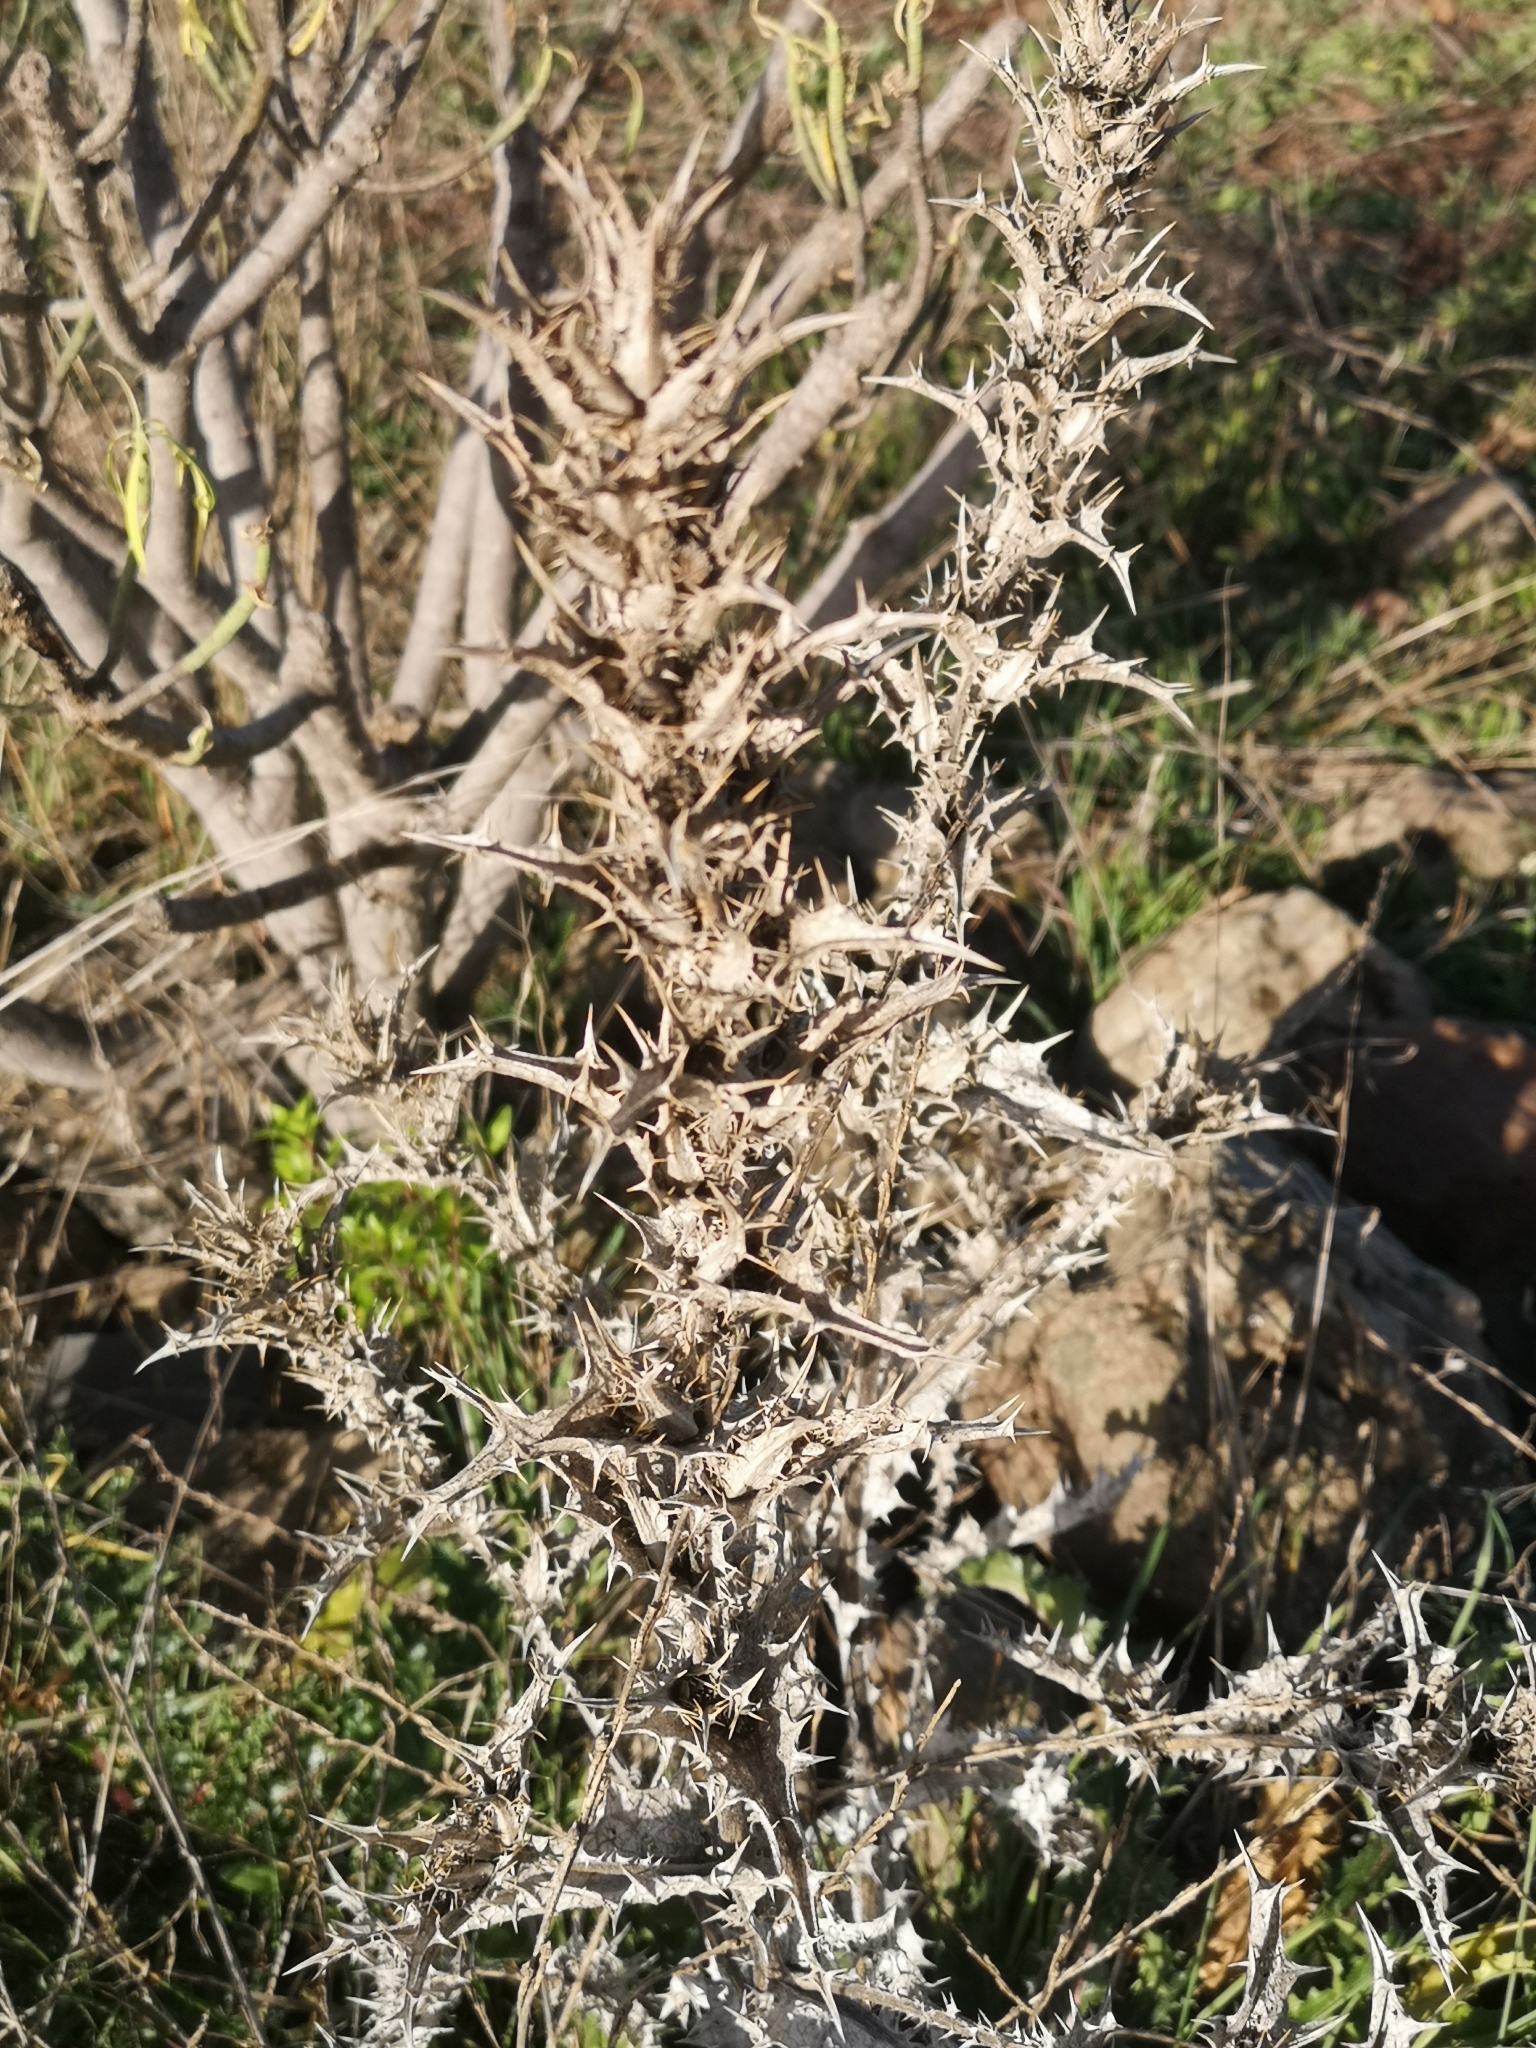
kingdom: Plantae
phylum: Tracheophyta
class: Magnoliopsida
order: Asterales
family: Asteraceae
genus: Scolymus
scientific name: Scolymus hispanicus
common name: Golden thistle
